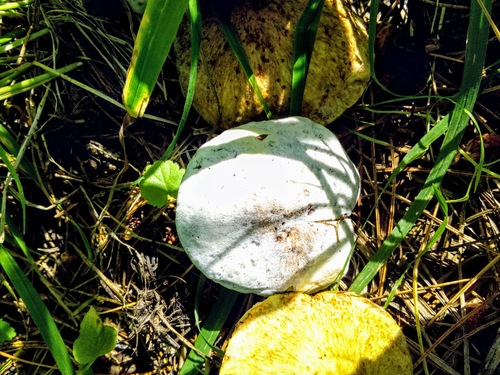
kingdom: Fungi
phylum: Ascomycota
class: Sordariomycetes
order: Hypocreales
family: Hypocreaceae
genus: Hypomyces
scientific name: Hypomyces
